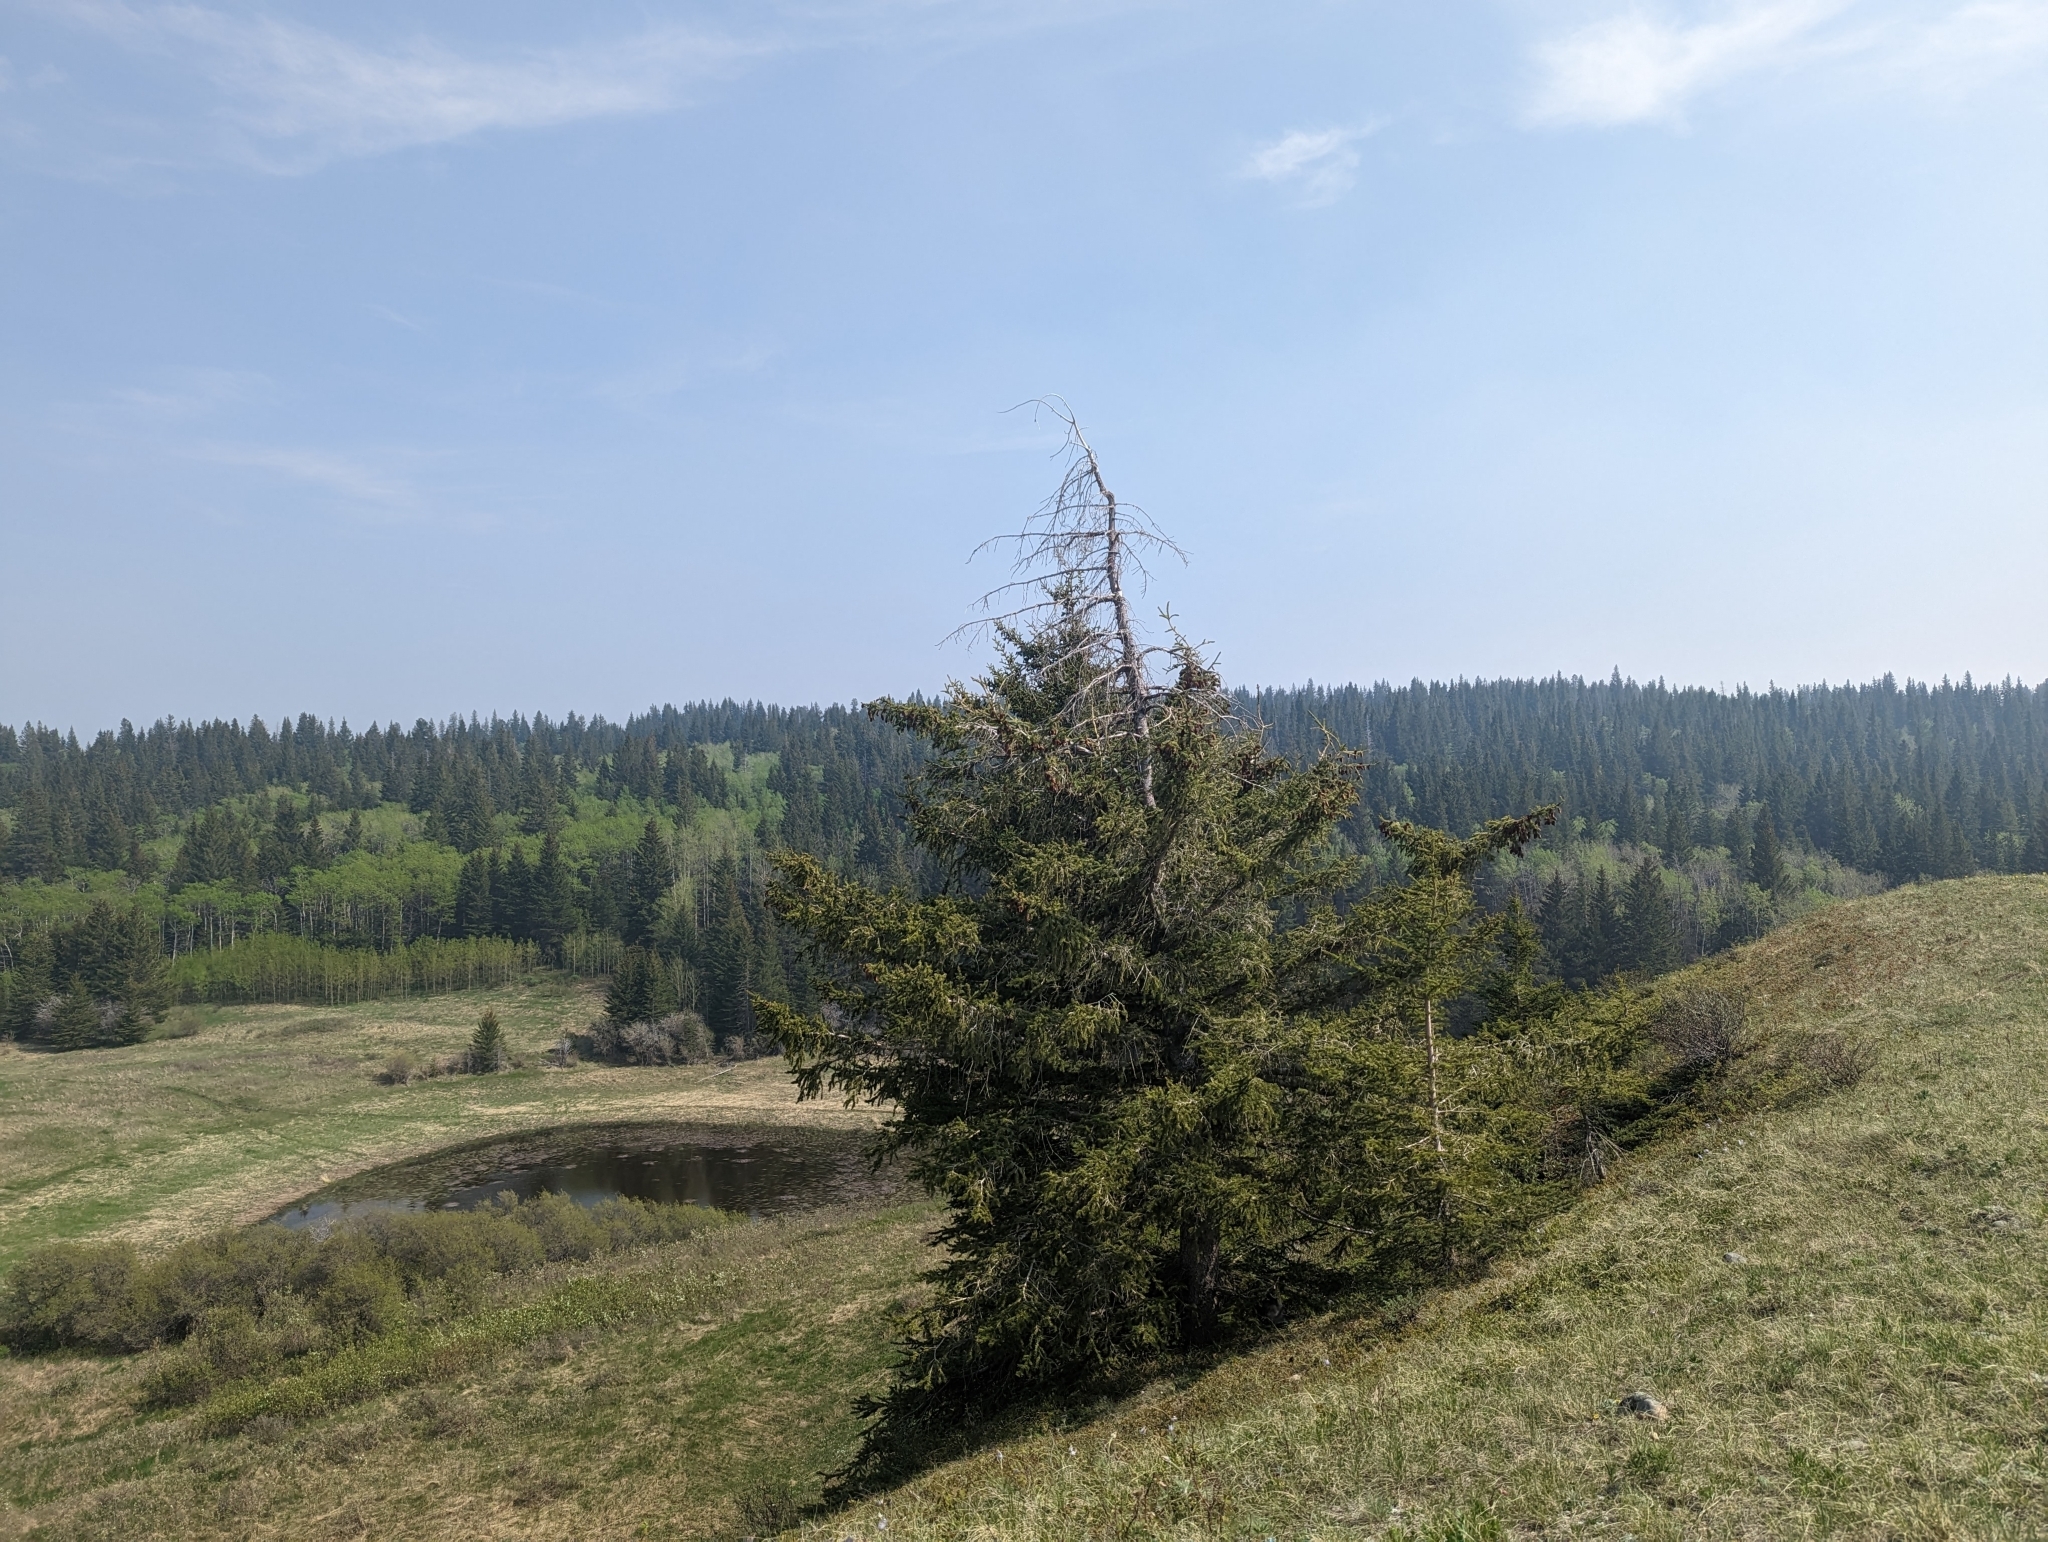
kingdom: Plantae
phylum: Tracheophyta
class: Pinopsida
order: Pinales
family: Pinaceae
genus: Picea
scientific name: Picea glauca
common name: White spruce
